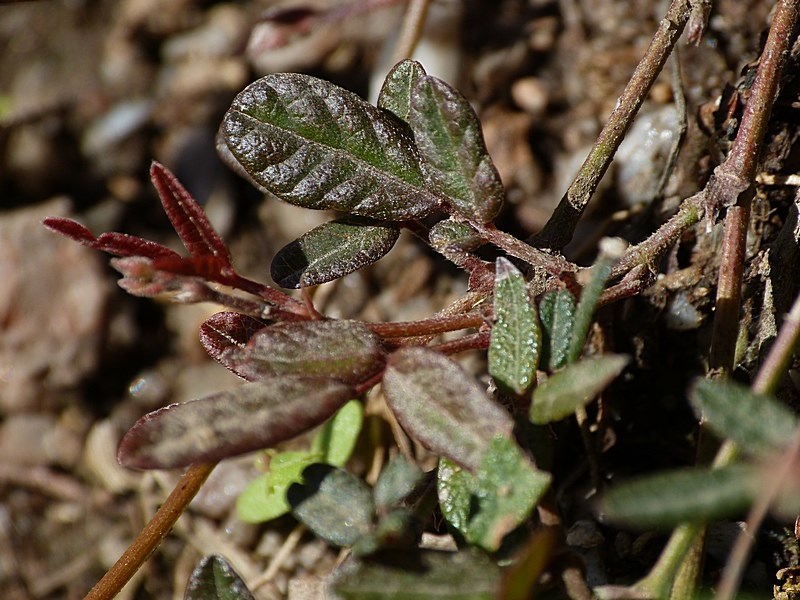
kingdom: Plantae
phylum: Tracheophyta
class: Magnoliopsida
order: Fabales
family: Fabaceae
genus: Grona
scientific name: Grona varians
